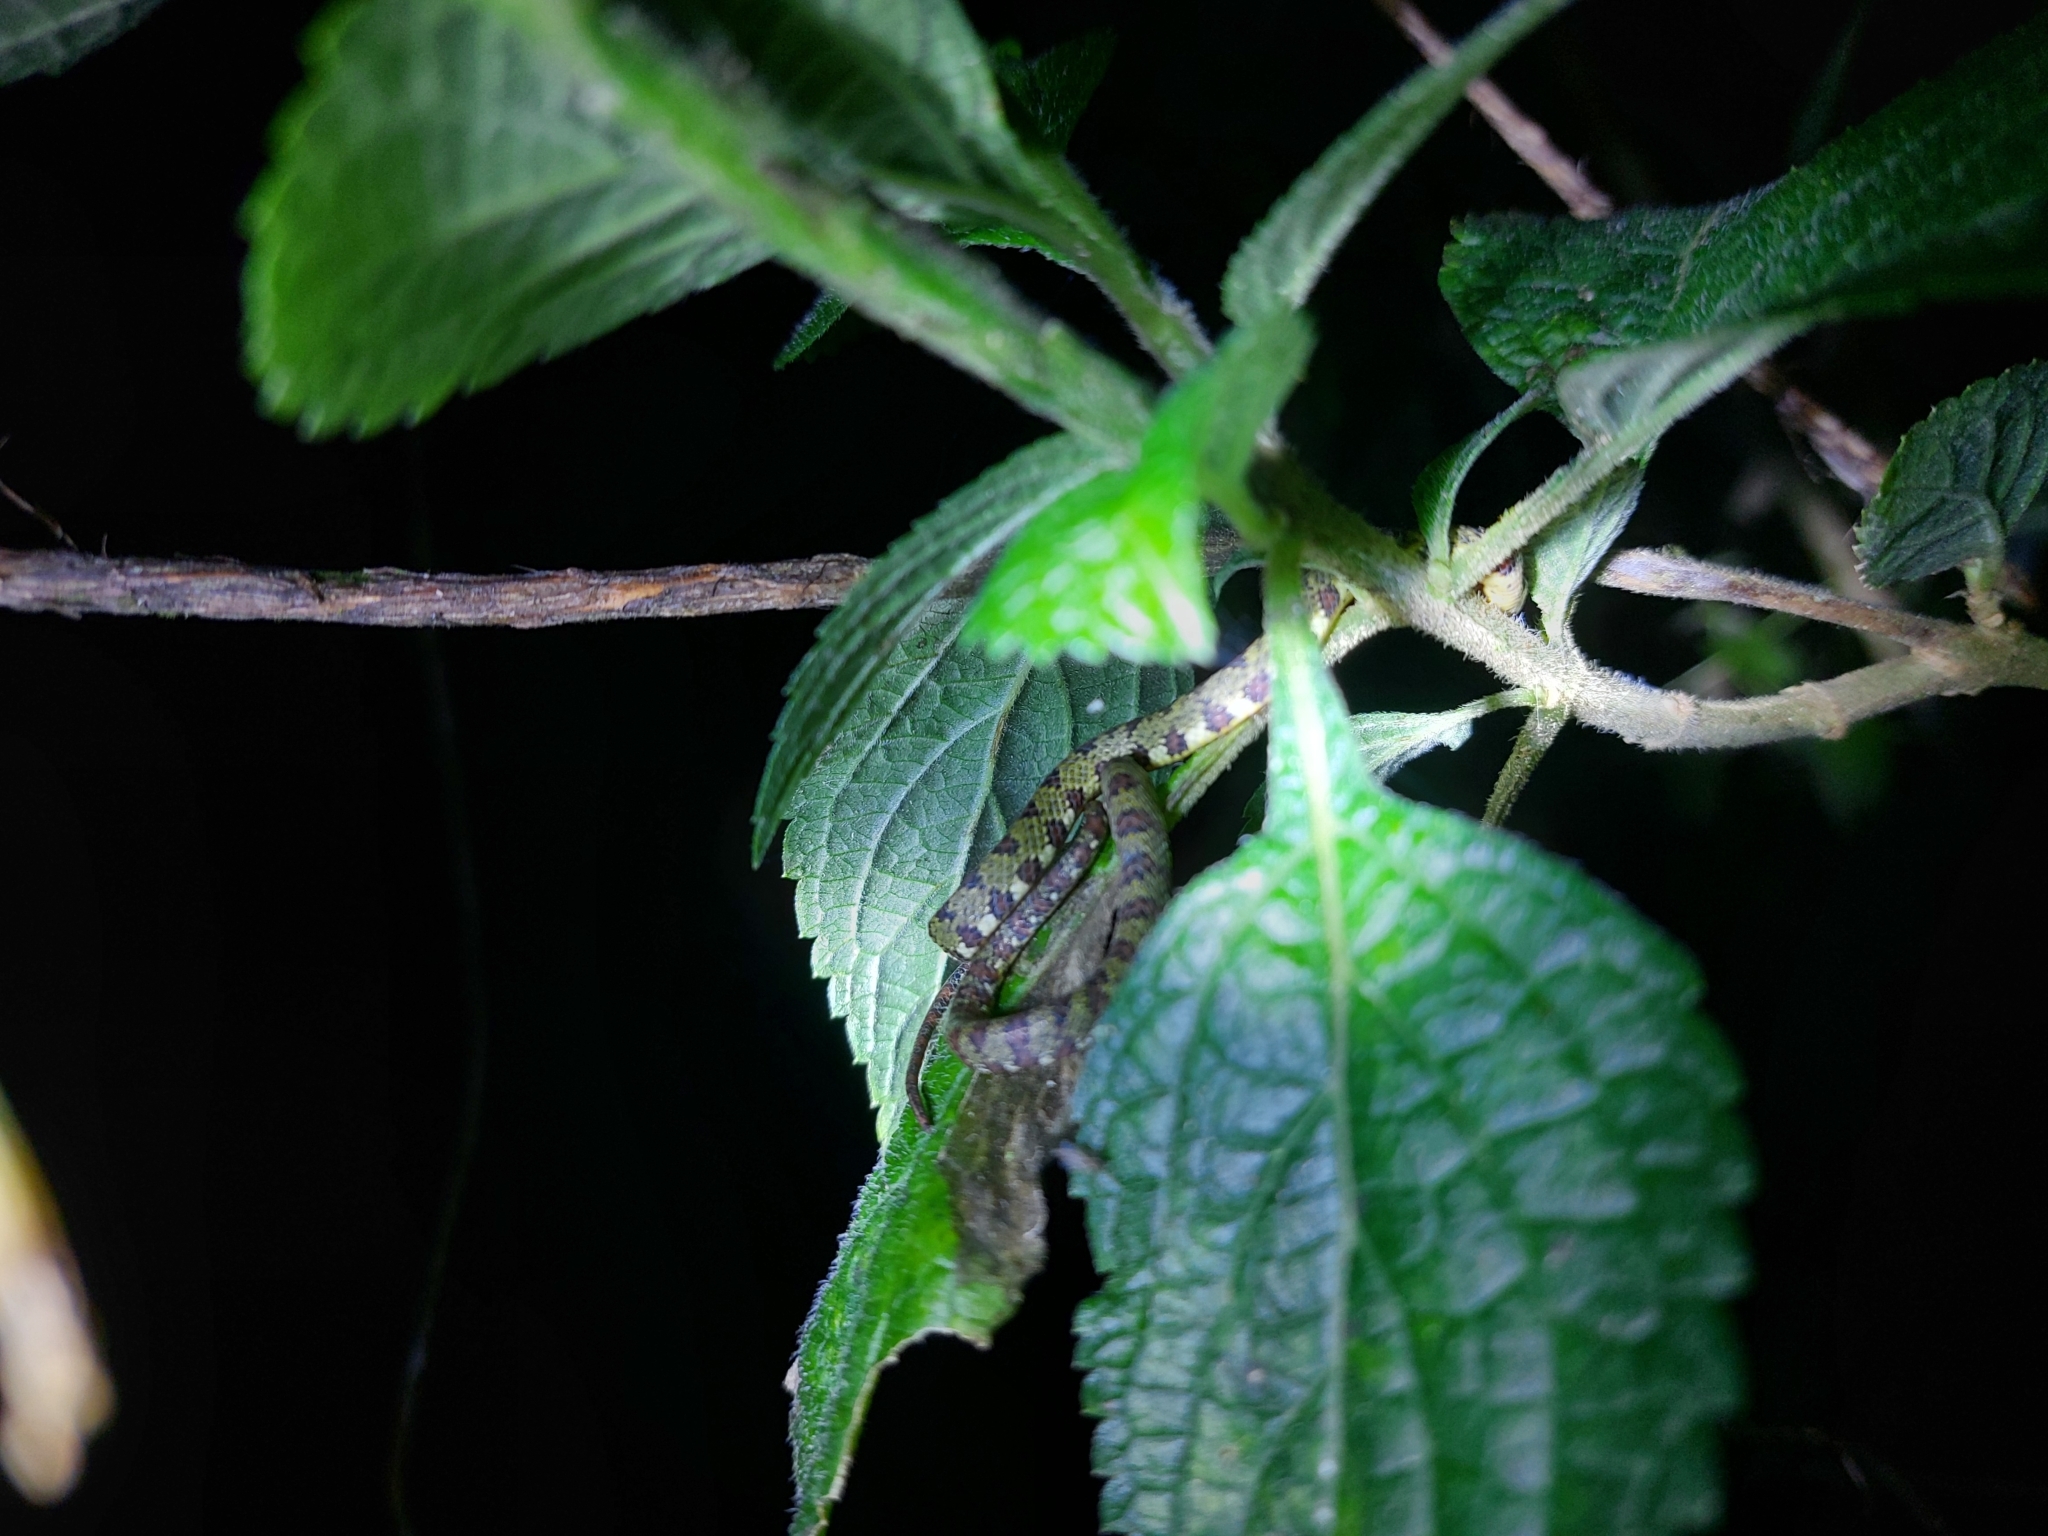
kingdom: Animalia
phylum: Chordata
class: Squamata
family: Colubridae
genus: Sibon
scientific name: Sibon longifrenis
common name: Stejneger's snail sucker
